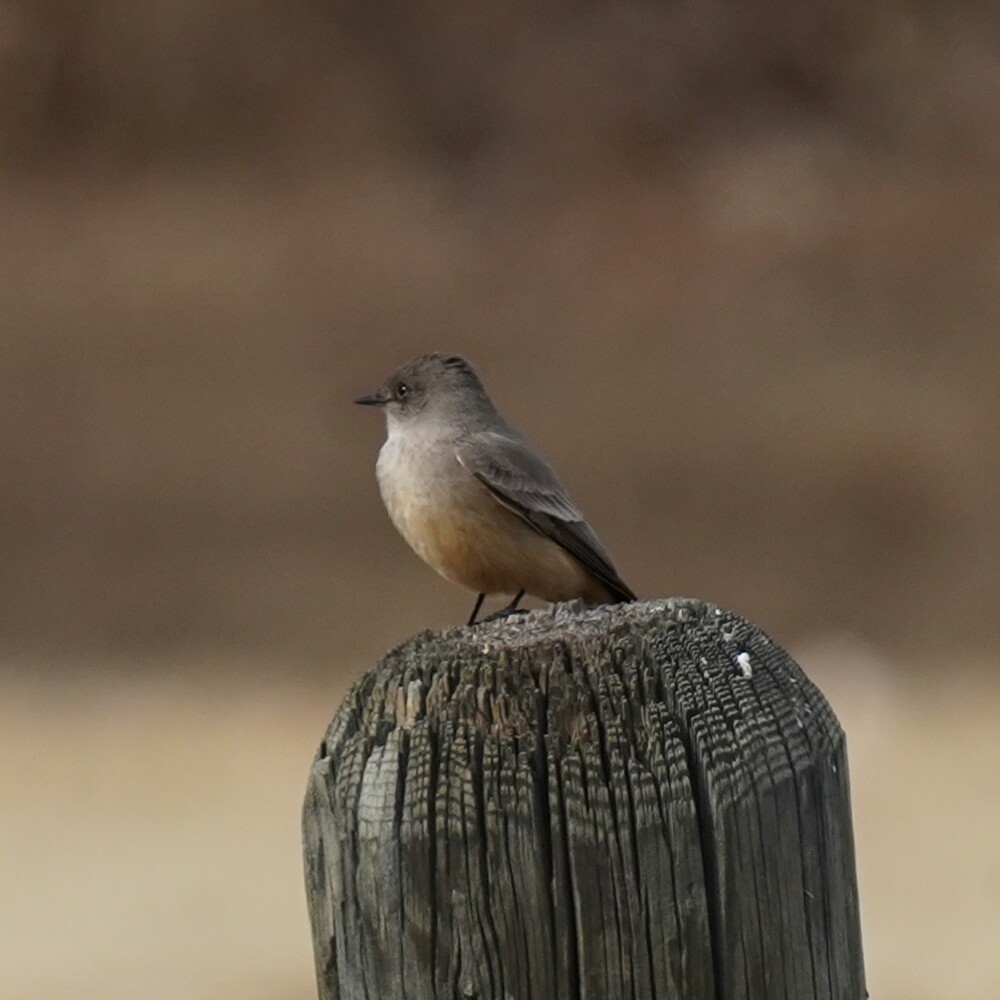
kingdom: Animalia
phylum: Chordata
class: Aves
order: Passeriformes
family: Tyrannidae
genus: Sayornis
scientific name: Sayornis saya
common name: Say's phoebe
